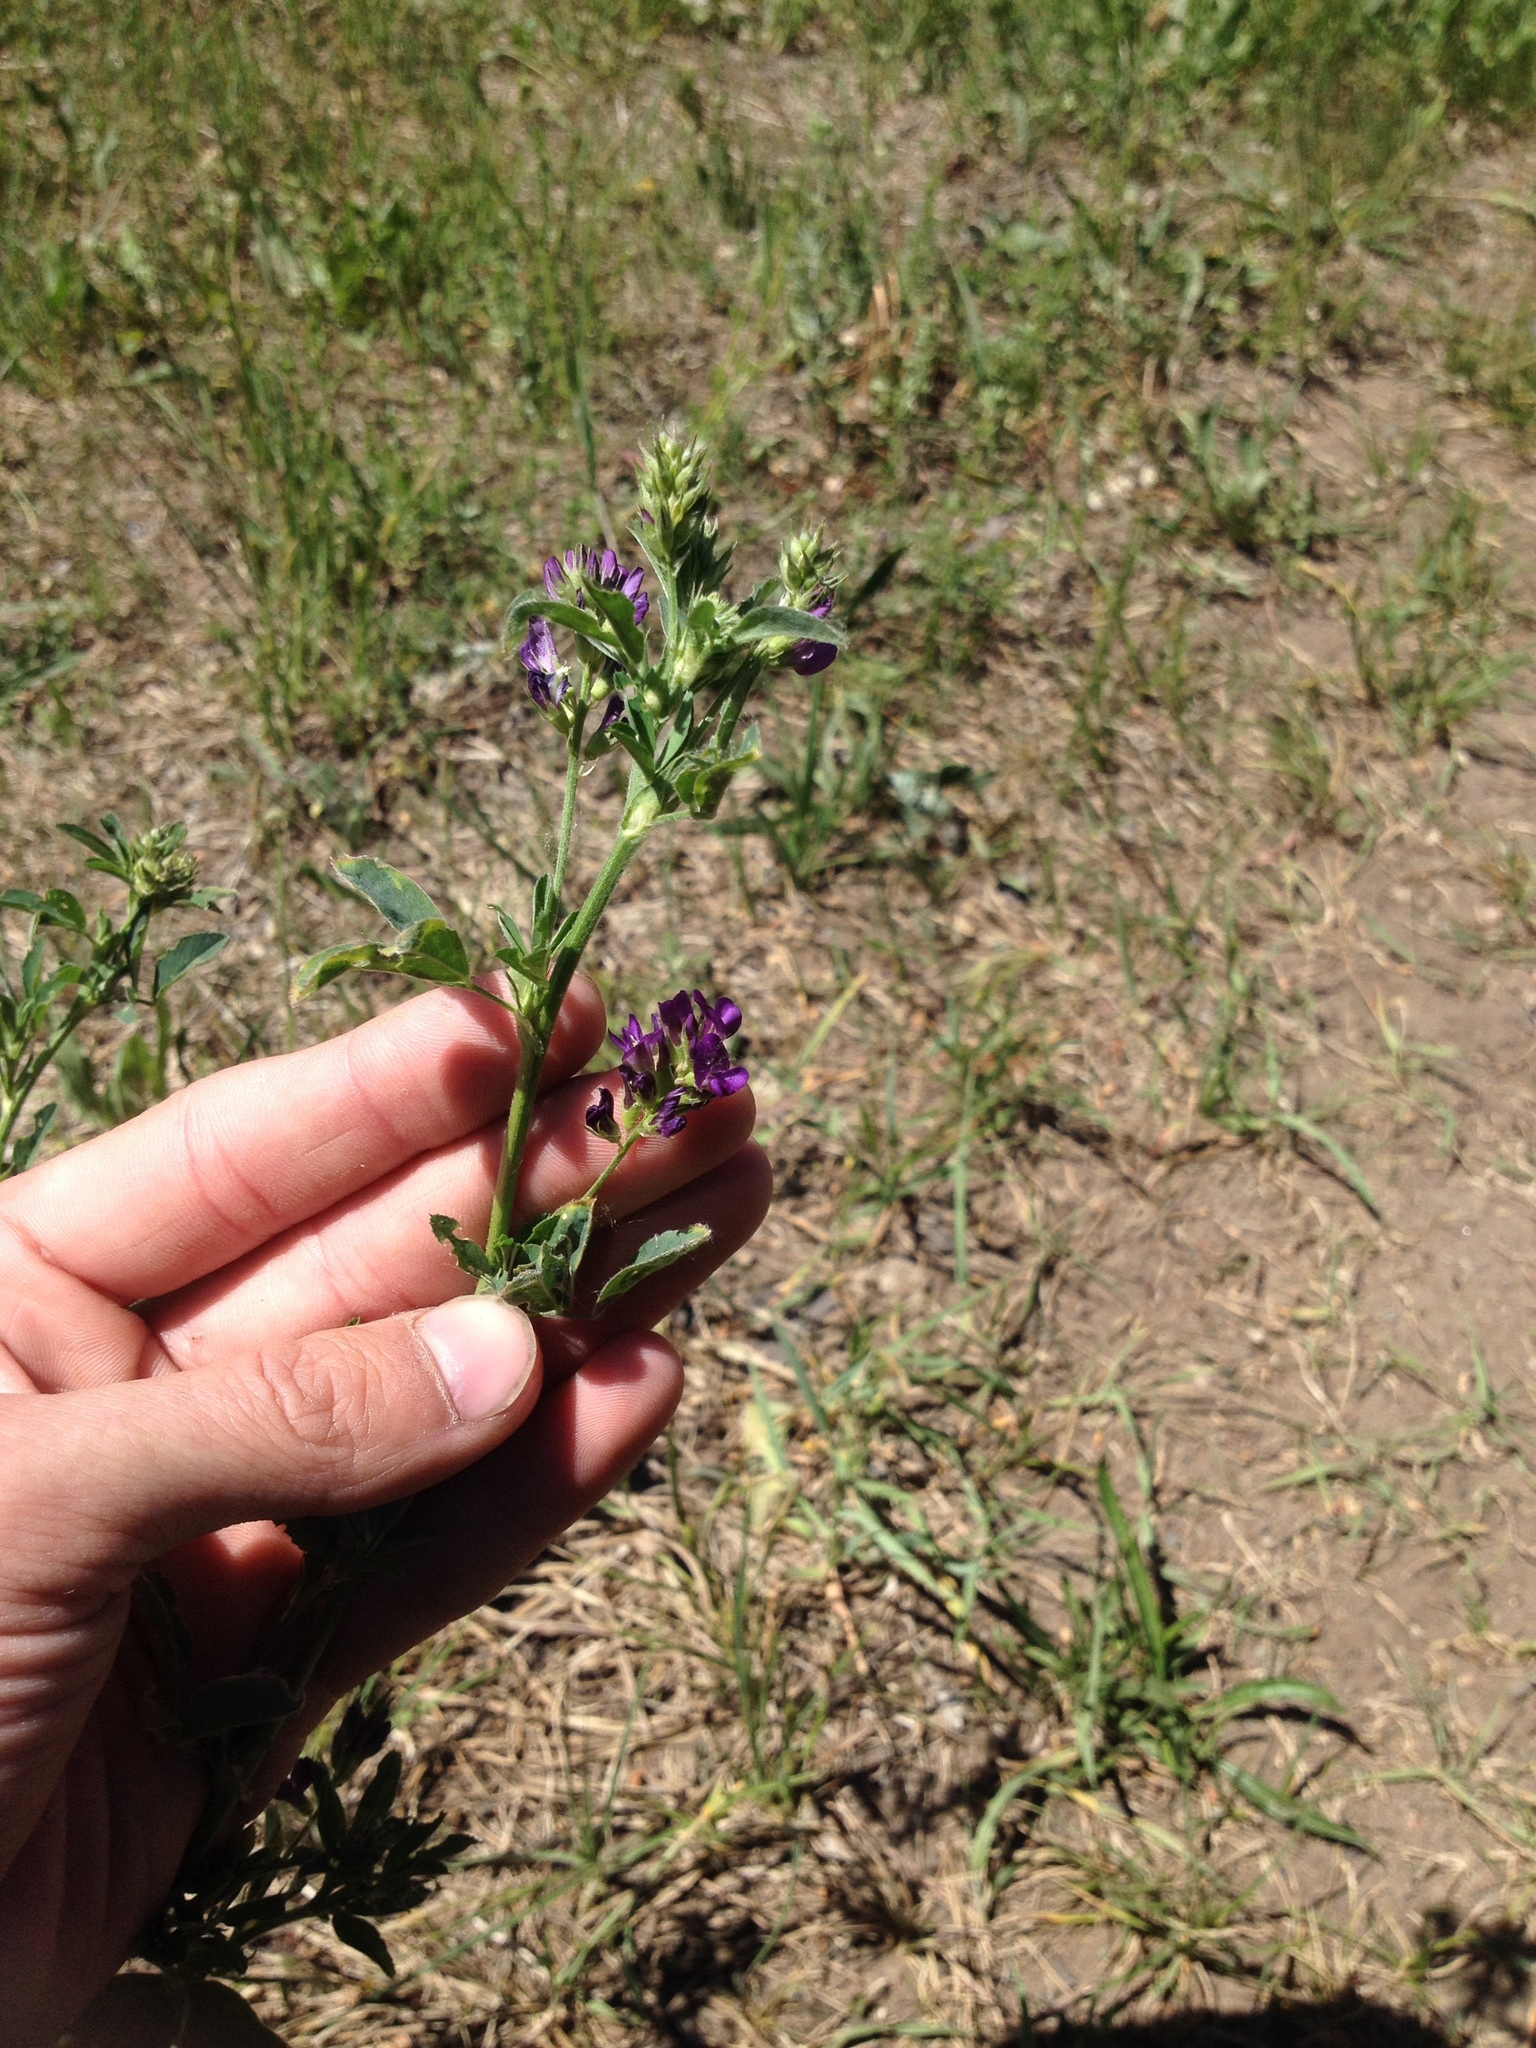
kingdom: Plantae
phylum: Tracheophyta
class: Magnoliopsida
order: Fabales
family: Fabaceae
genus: Medicago
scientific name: Medicago sativa
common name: Alfalfa
